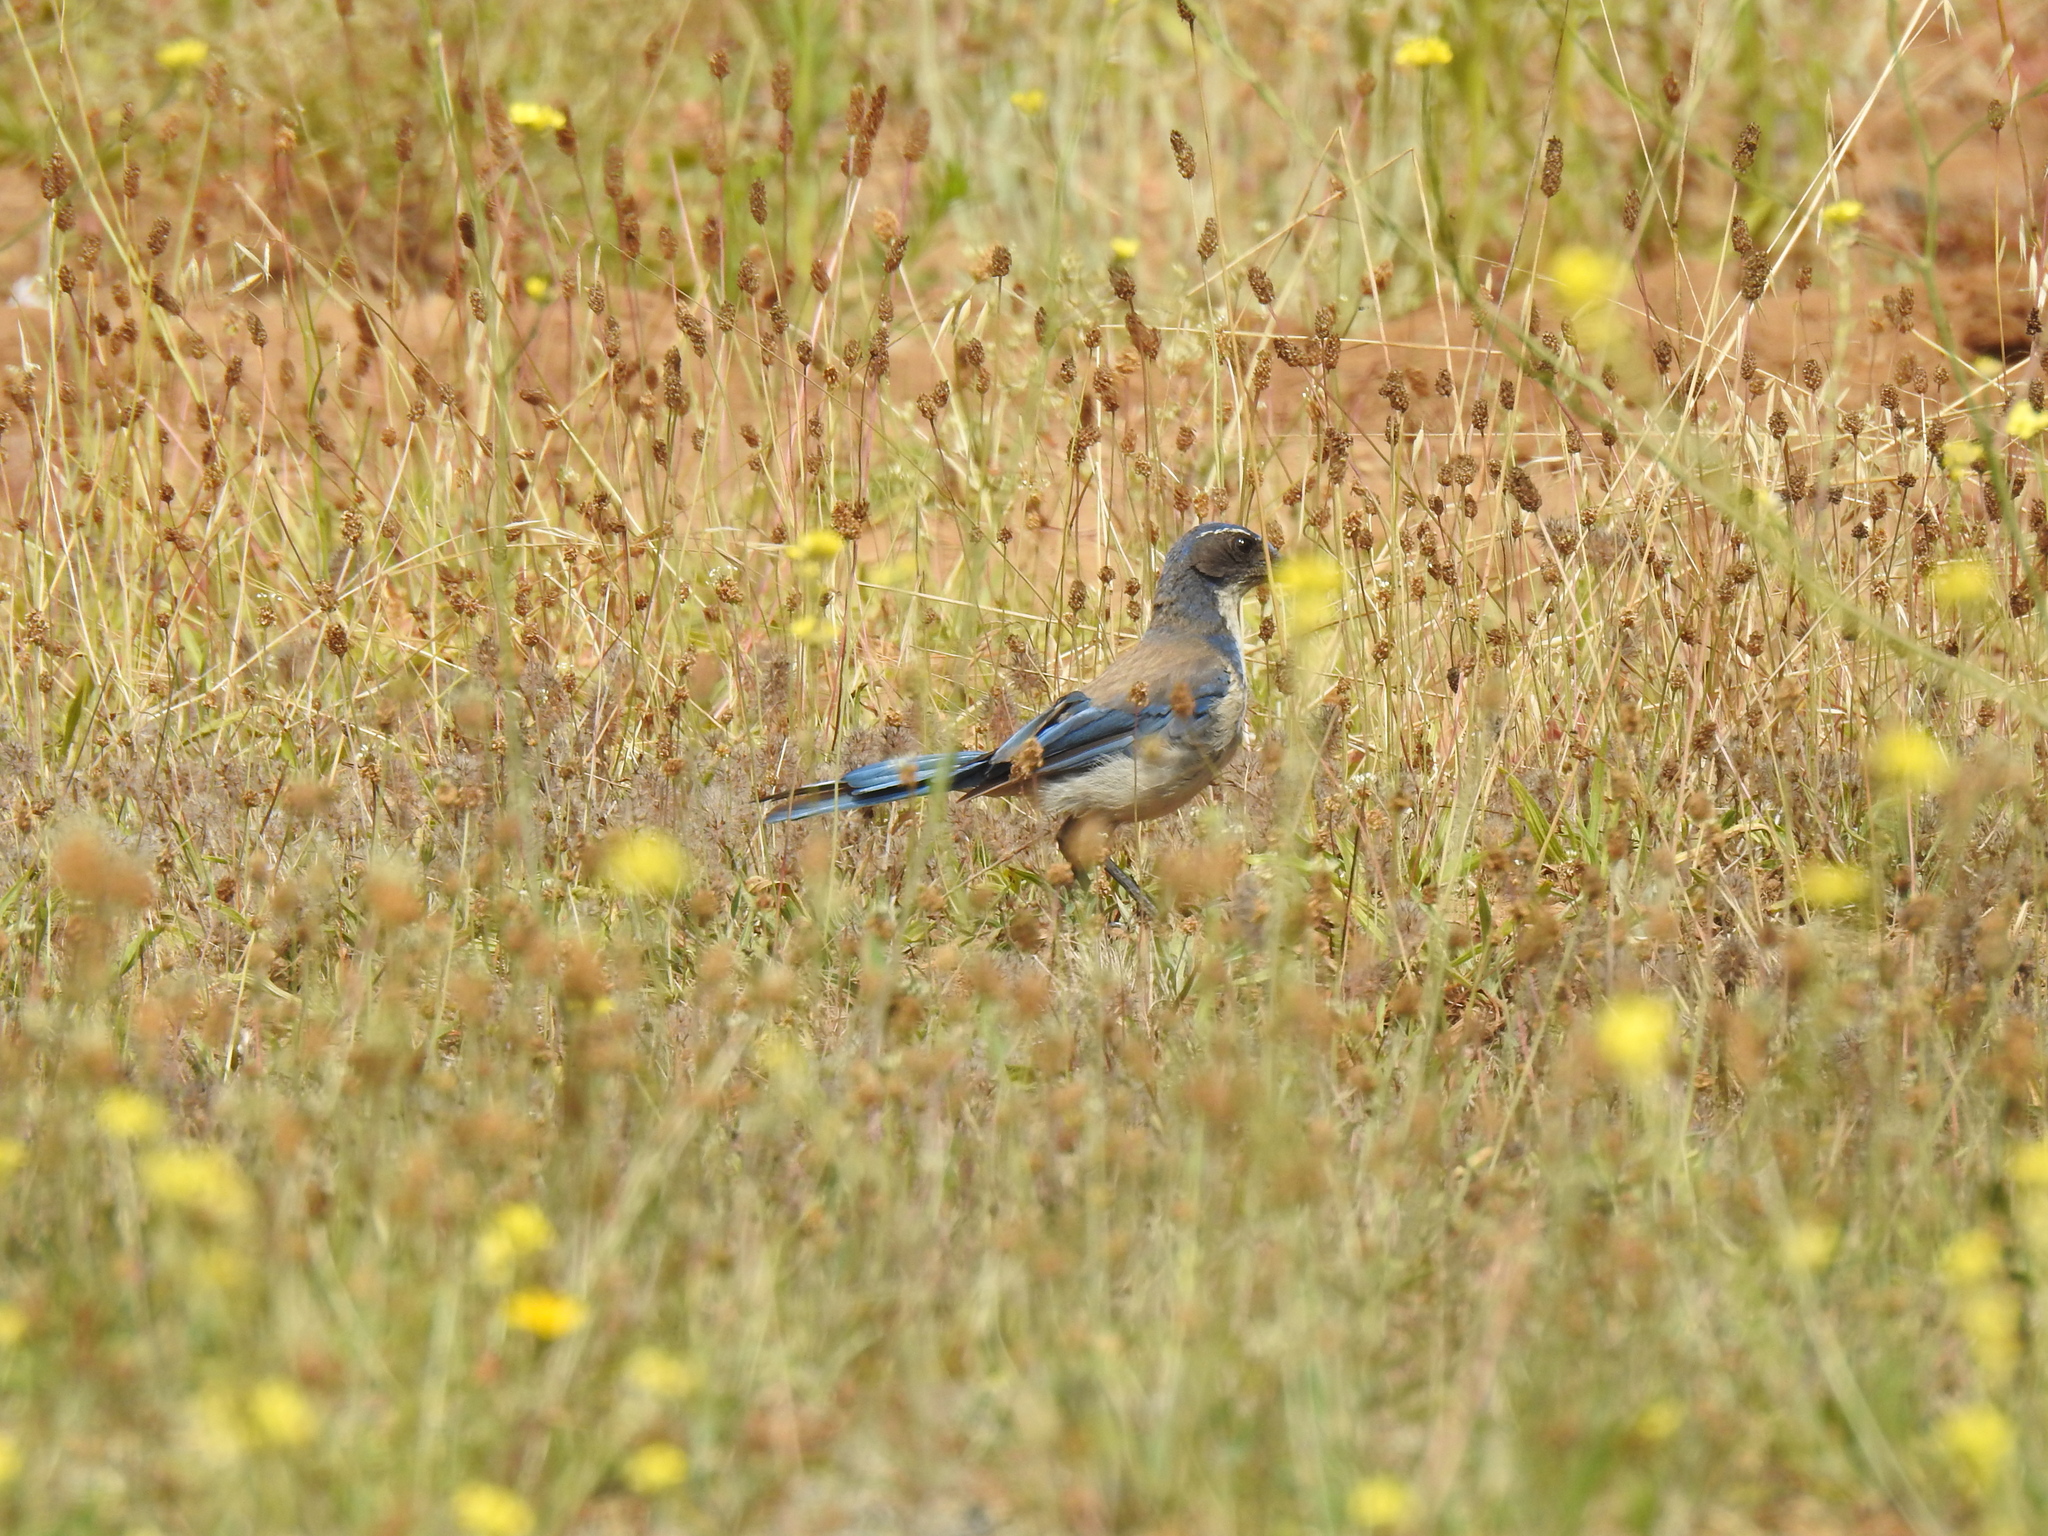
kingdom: Animalia
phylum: Chordata
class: Aves
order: Passeriformes
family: Corvidae
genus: Aphelocoma
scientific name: Aphelocoma californica
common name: California scrub-jay
